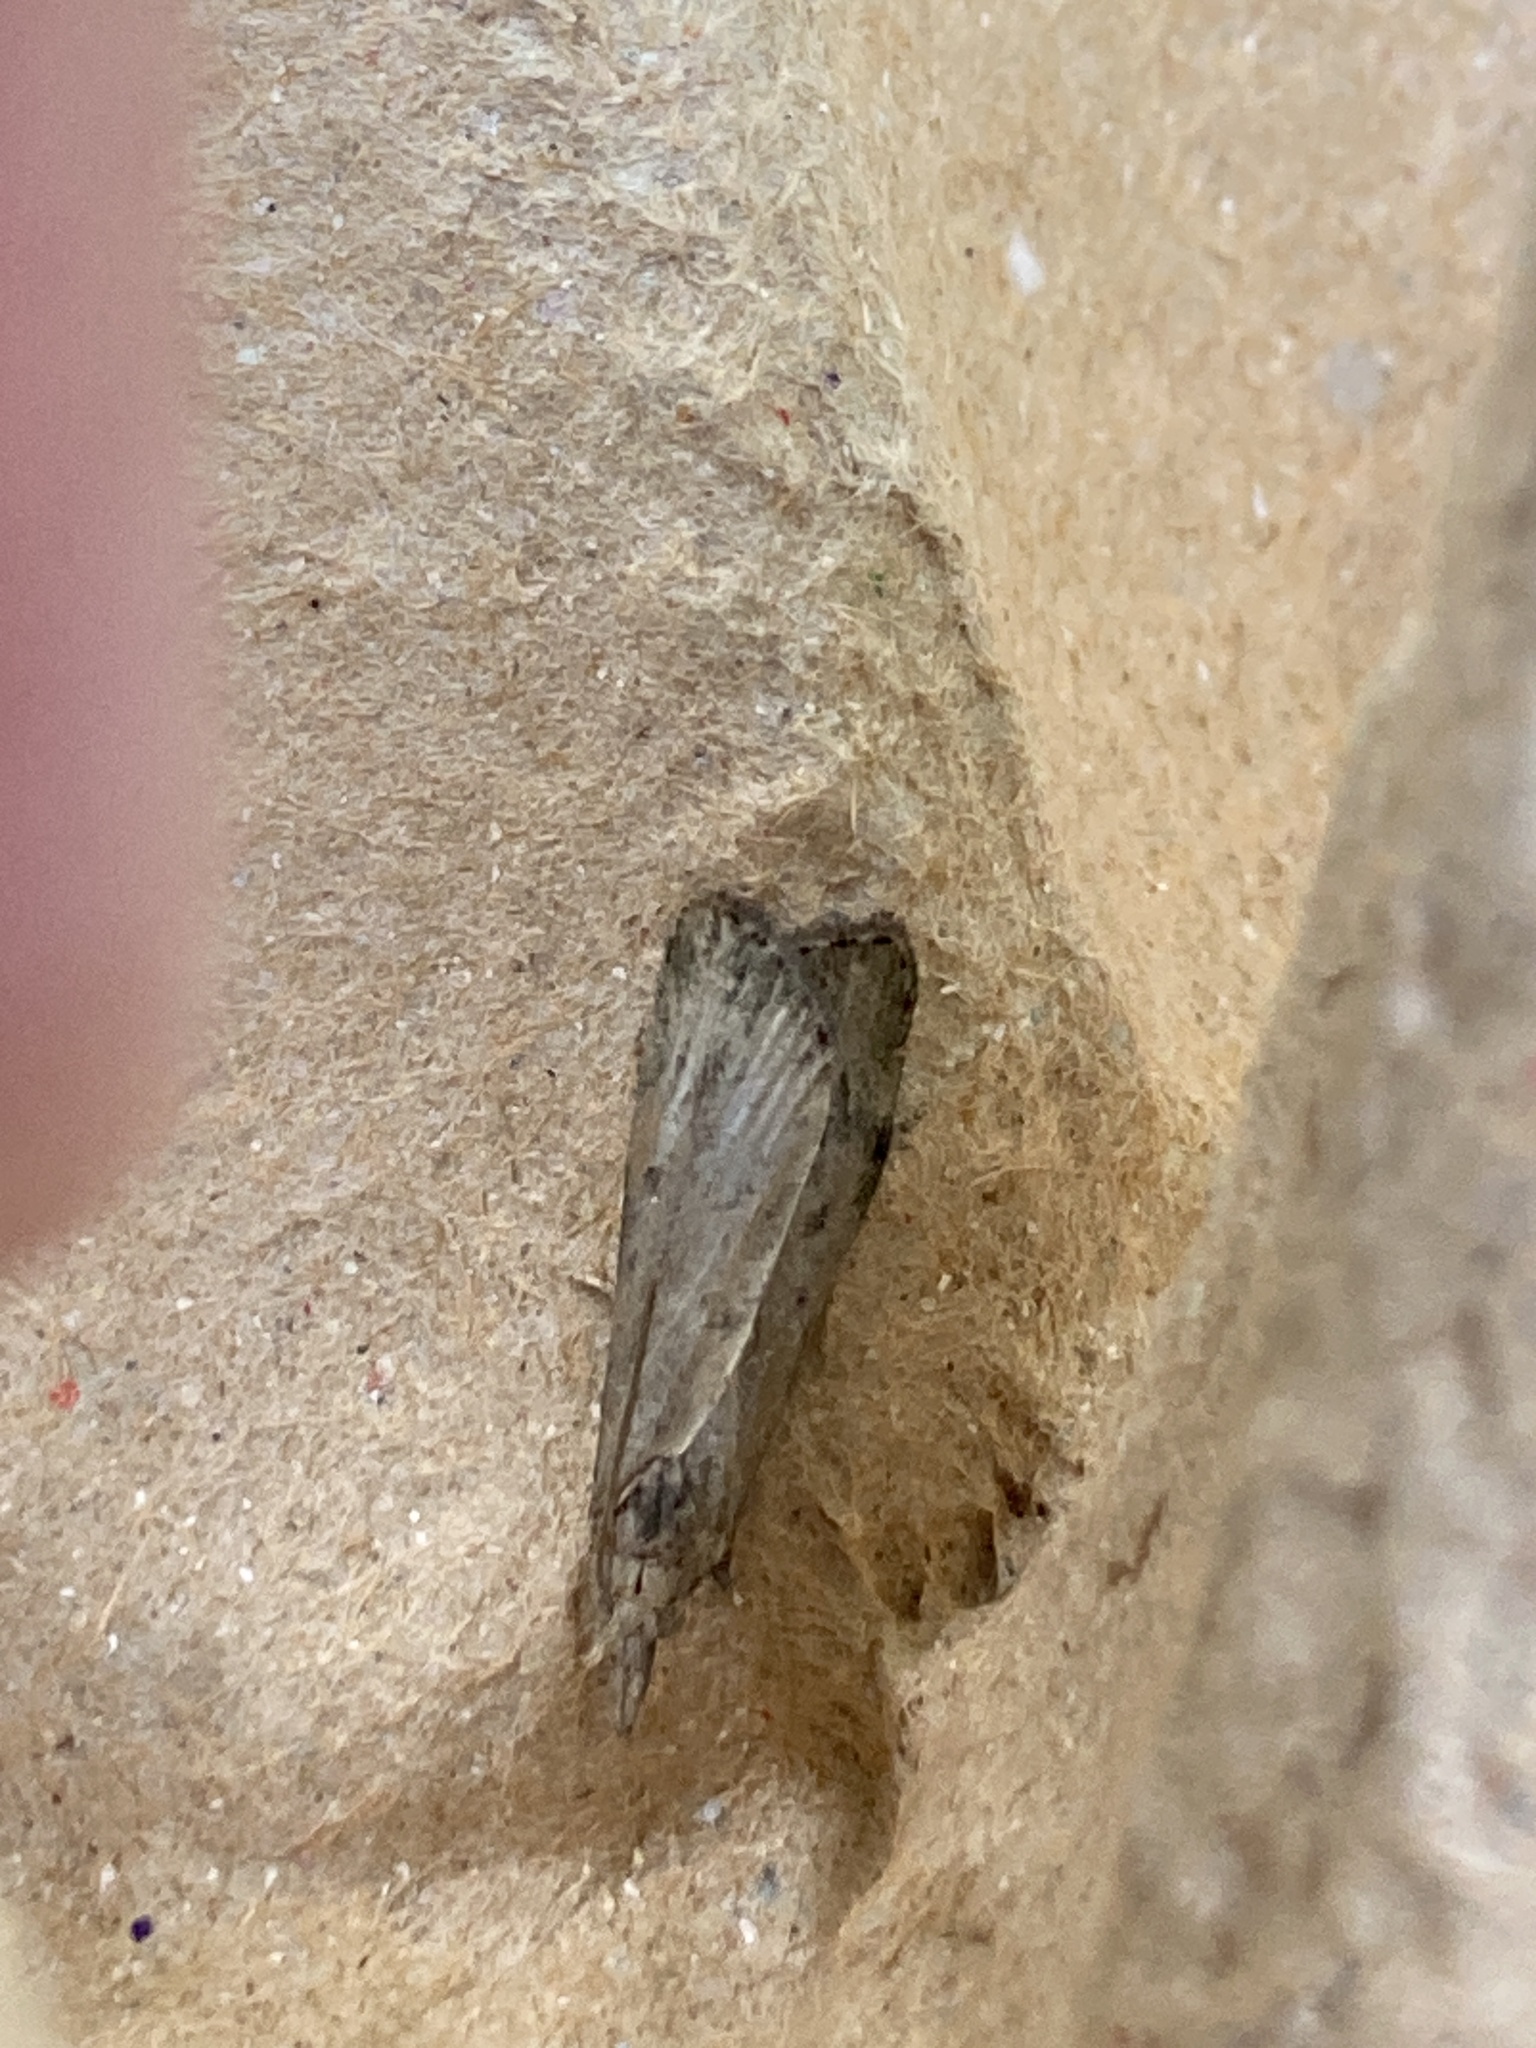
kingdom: Animalia
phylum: Arthropoda
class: Insecta
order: Lepidoptera
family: Pyralidae
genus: Aphomia
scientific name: Aphomia sociella
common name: Bee moth
